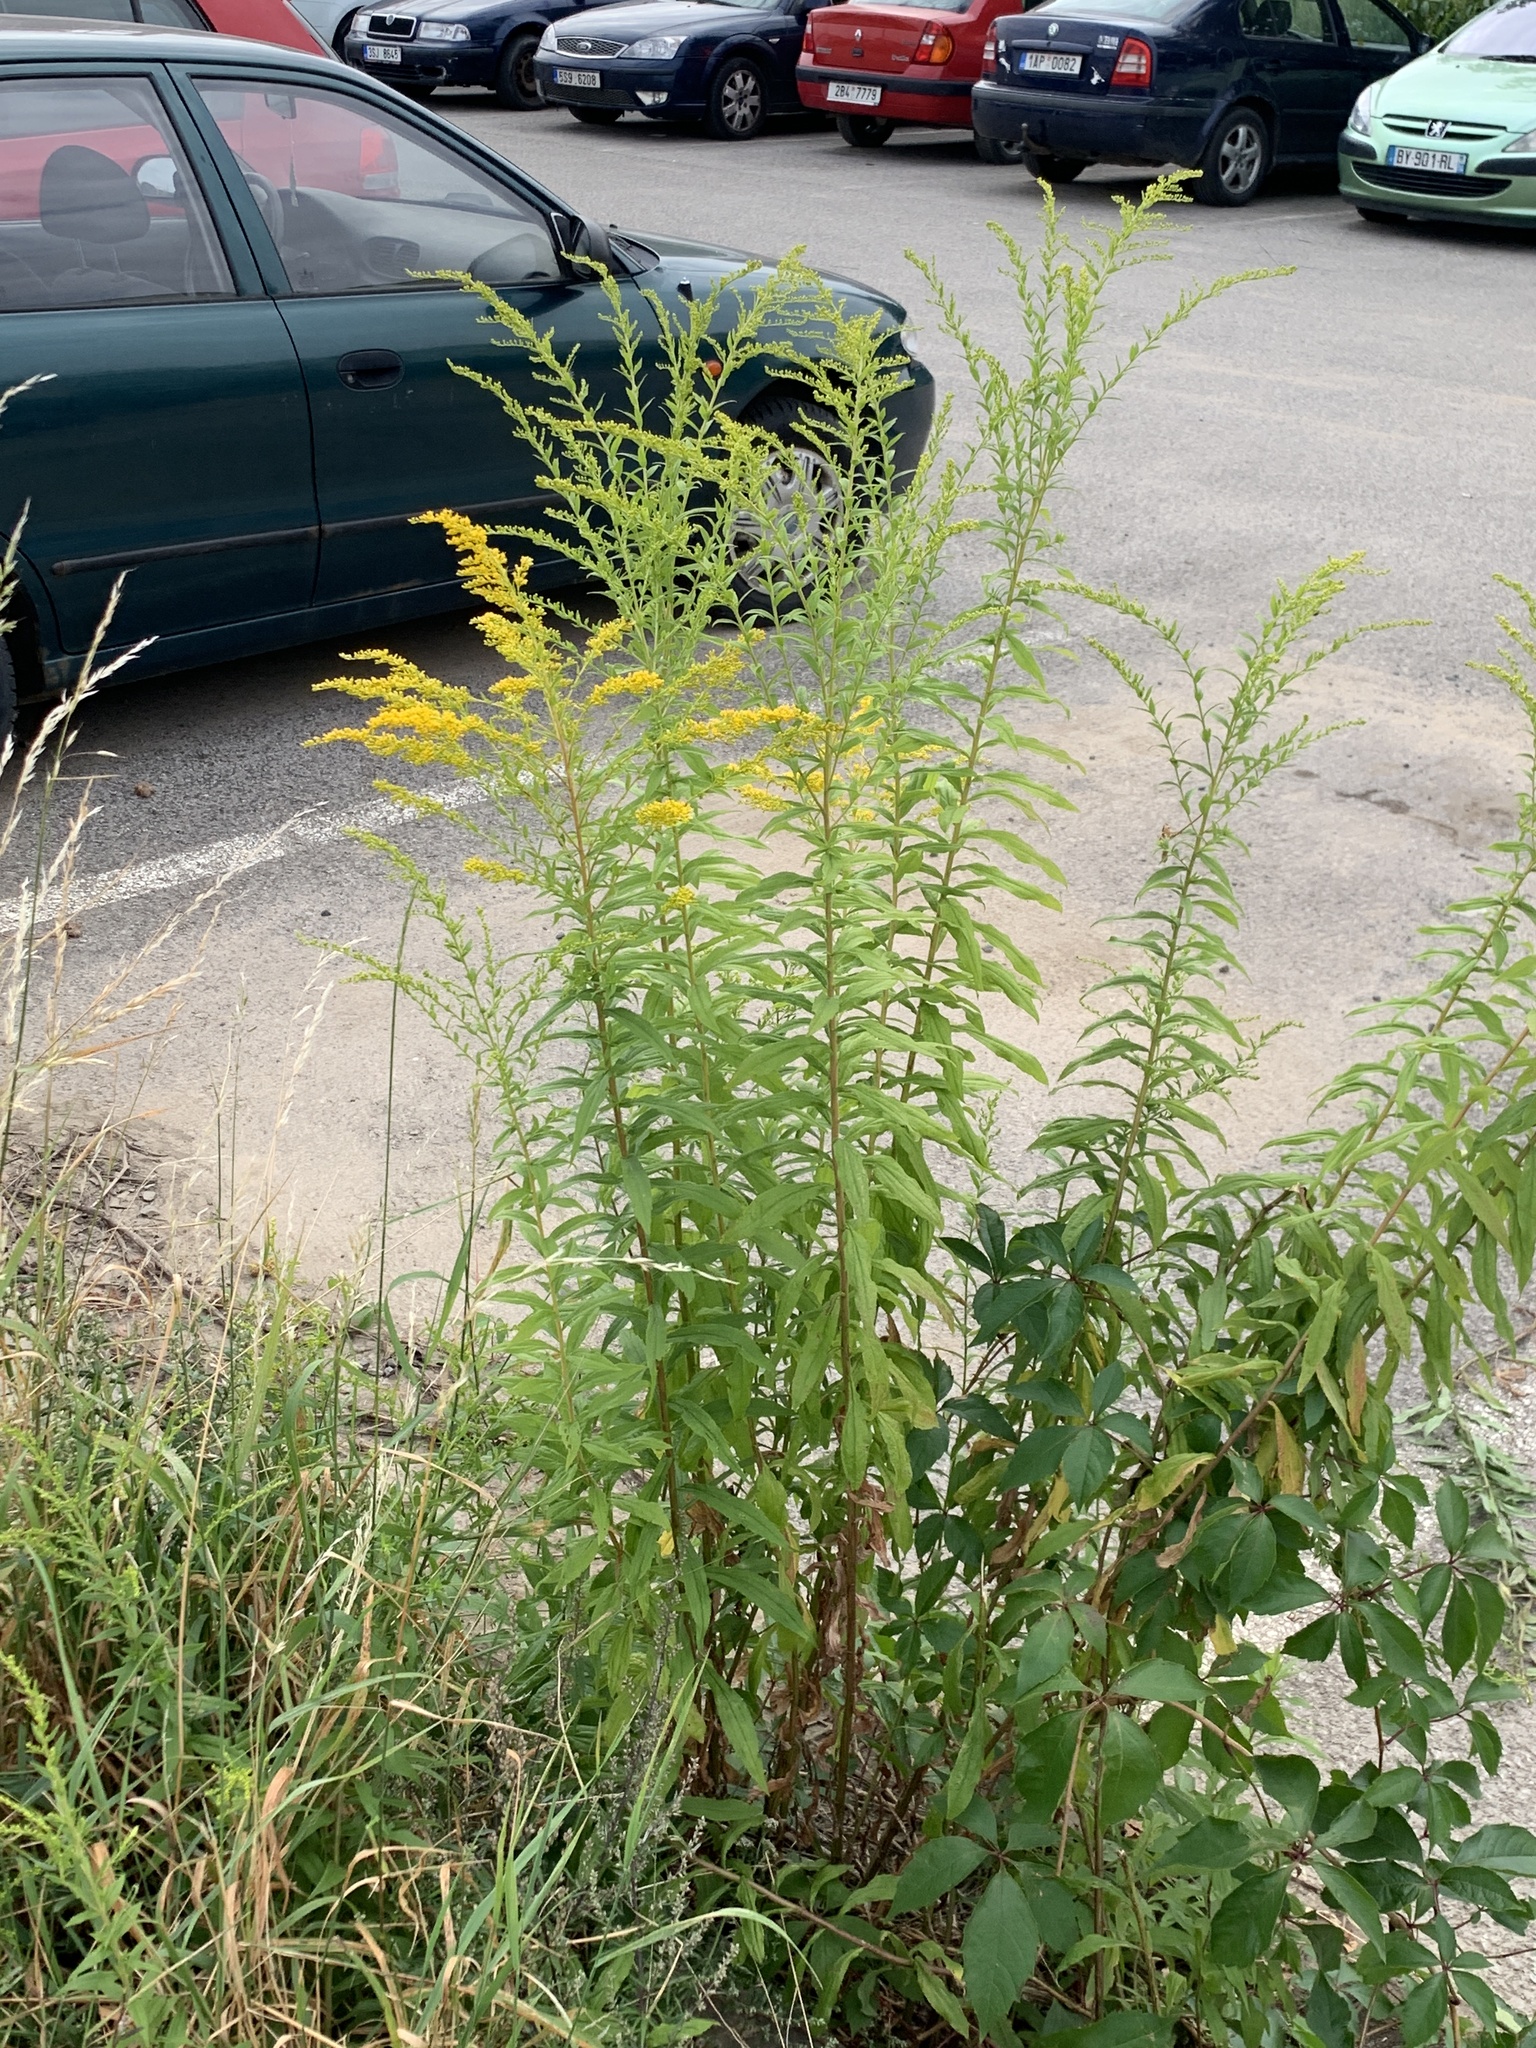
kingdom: Plantae
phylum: Tracheophyta
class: Magnoliopsida
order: Asterales
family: Asteraceae
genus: Solidago
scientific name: Solidago canadensis
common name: Canada goldenrod
